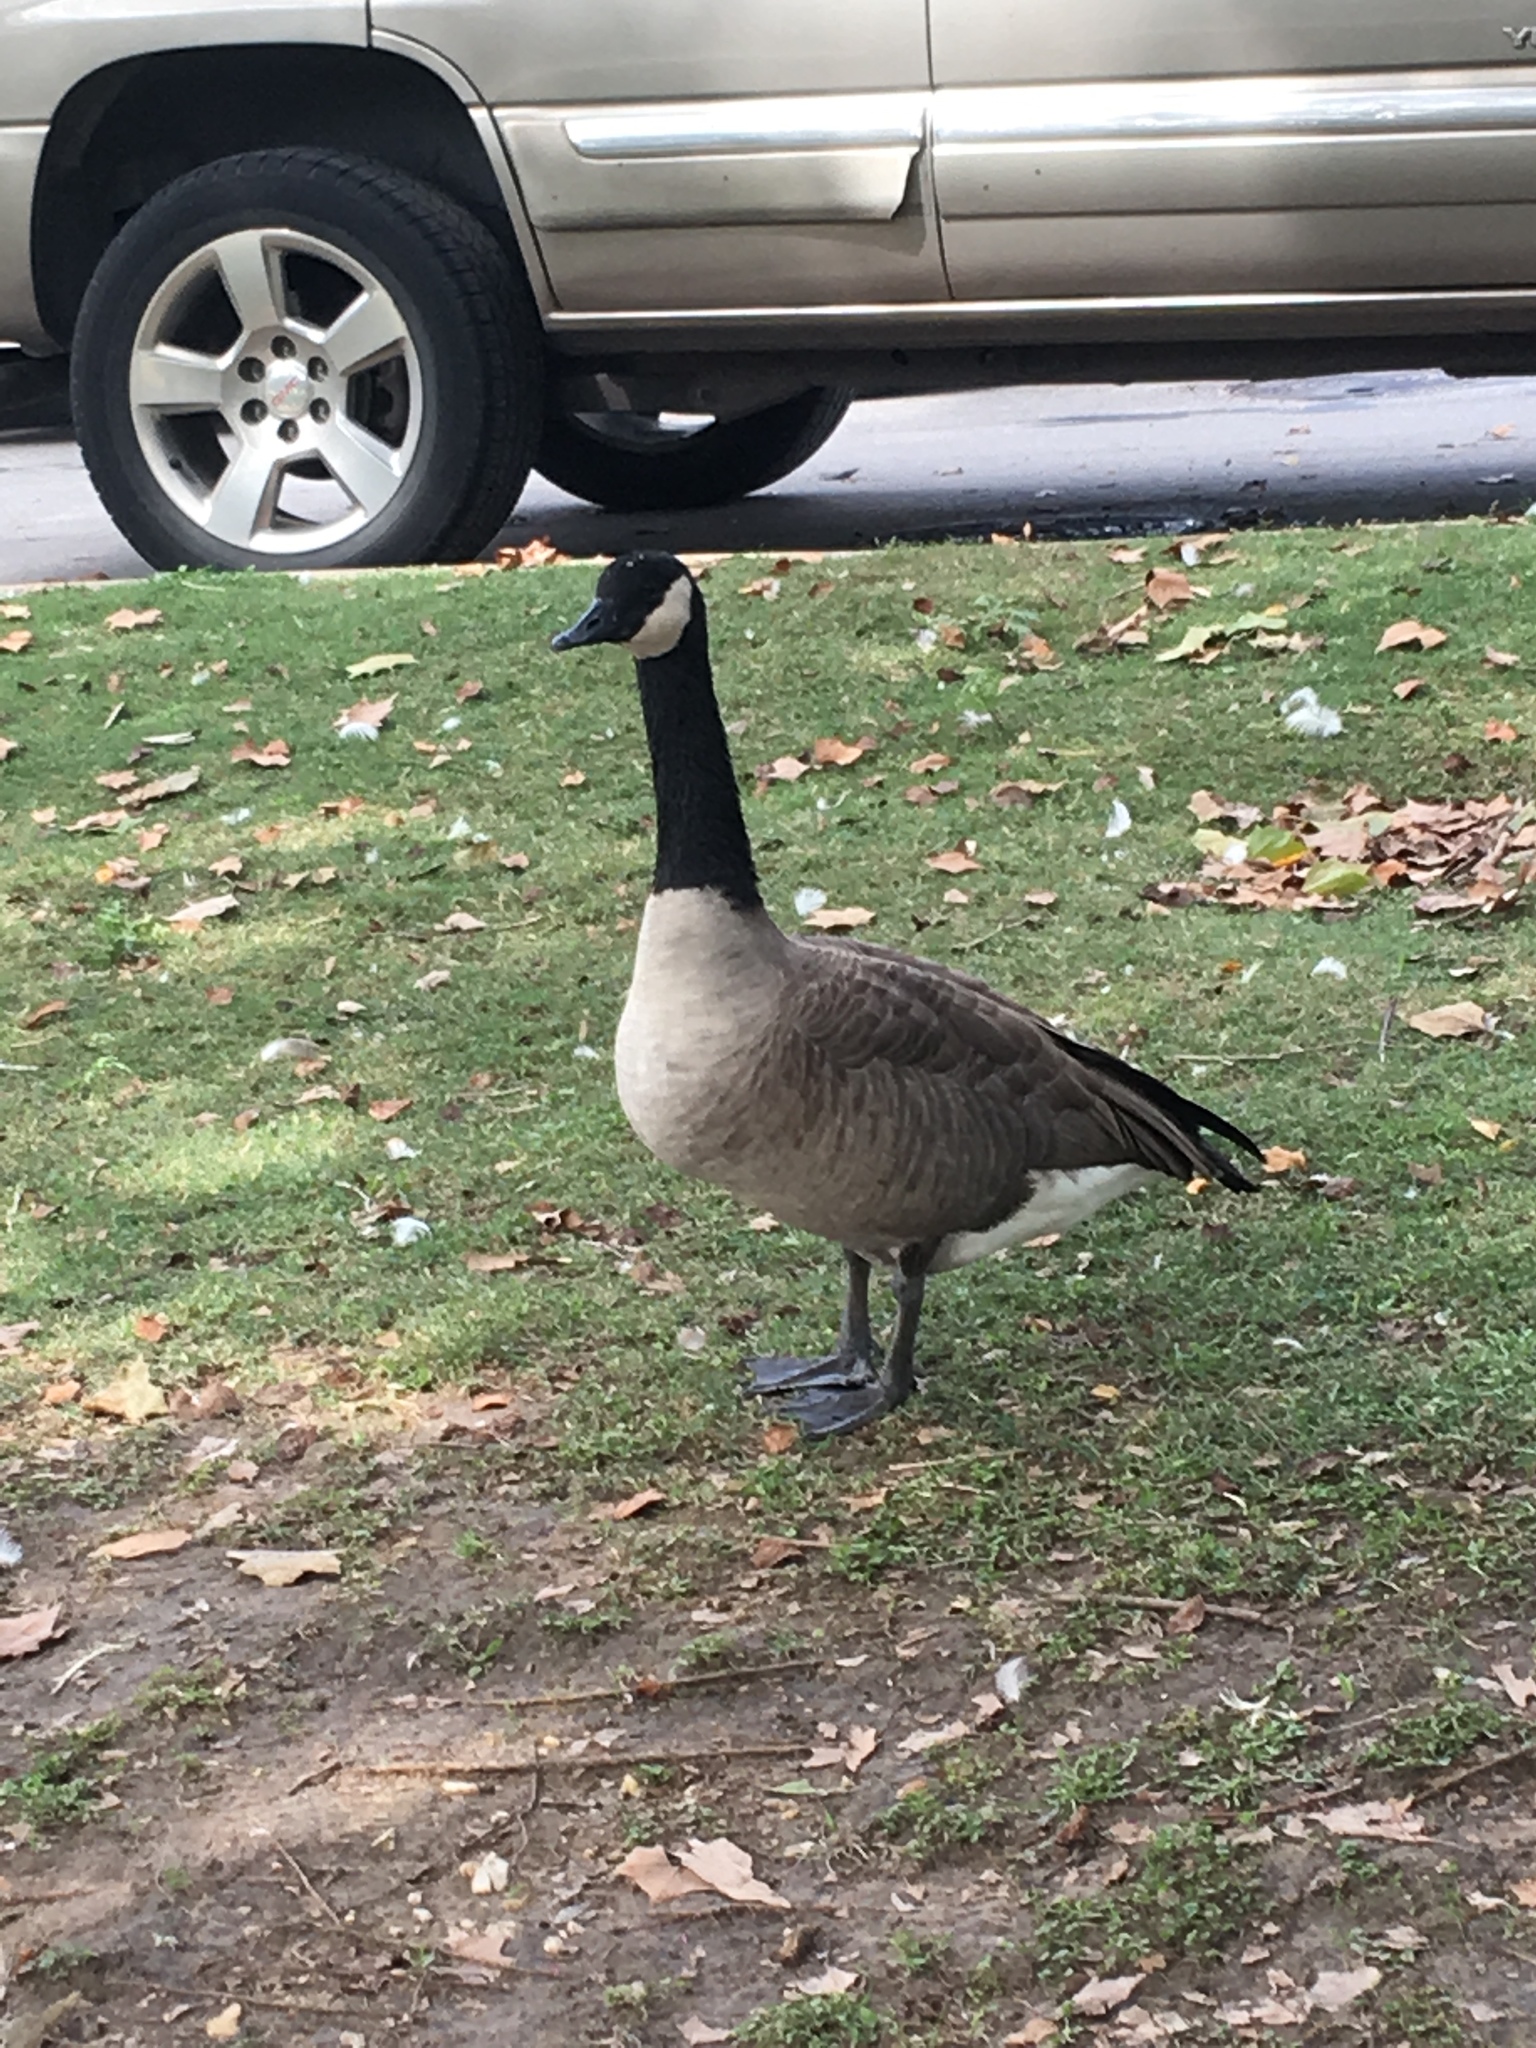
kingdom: Animalia
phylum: Chordata
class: Aves
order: Anseriformes
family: Anatidae
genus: Branta
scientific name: Branta canadensis
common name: Canada goose
